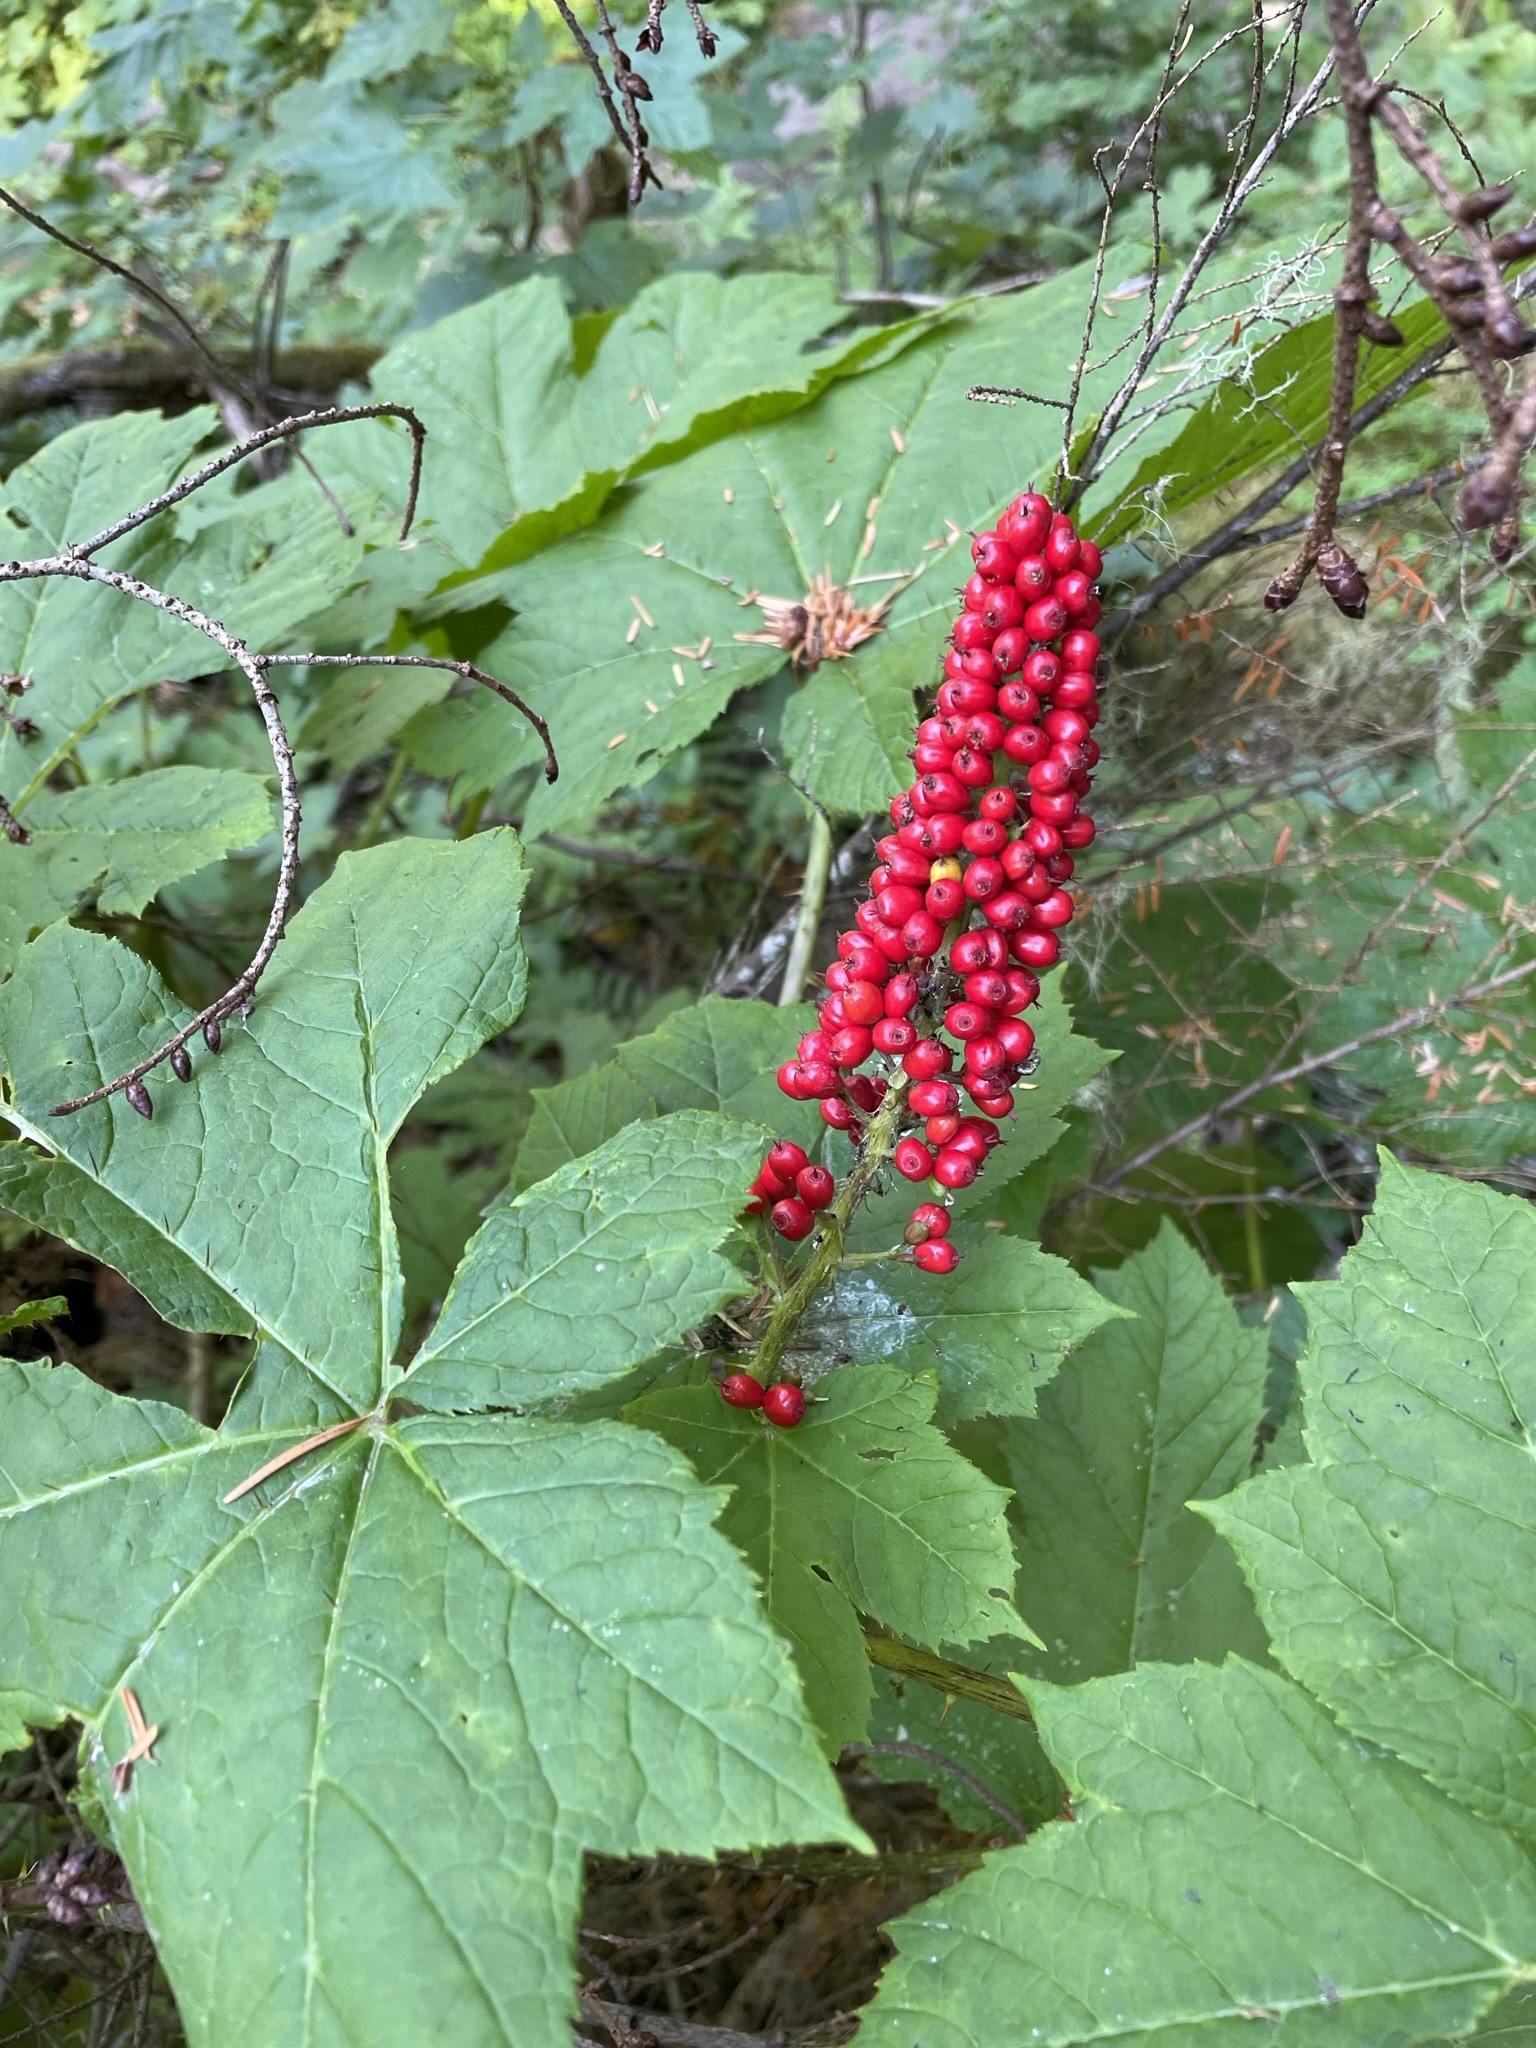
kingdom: Plantae
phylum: Tracheophyta
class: Magnoliopsida
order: Apiales
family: Araliaceae
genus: Oplopanax
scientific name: Oplopanax horridus
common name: Devil's walking-stick
